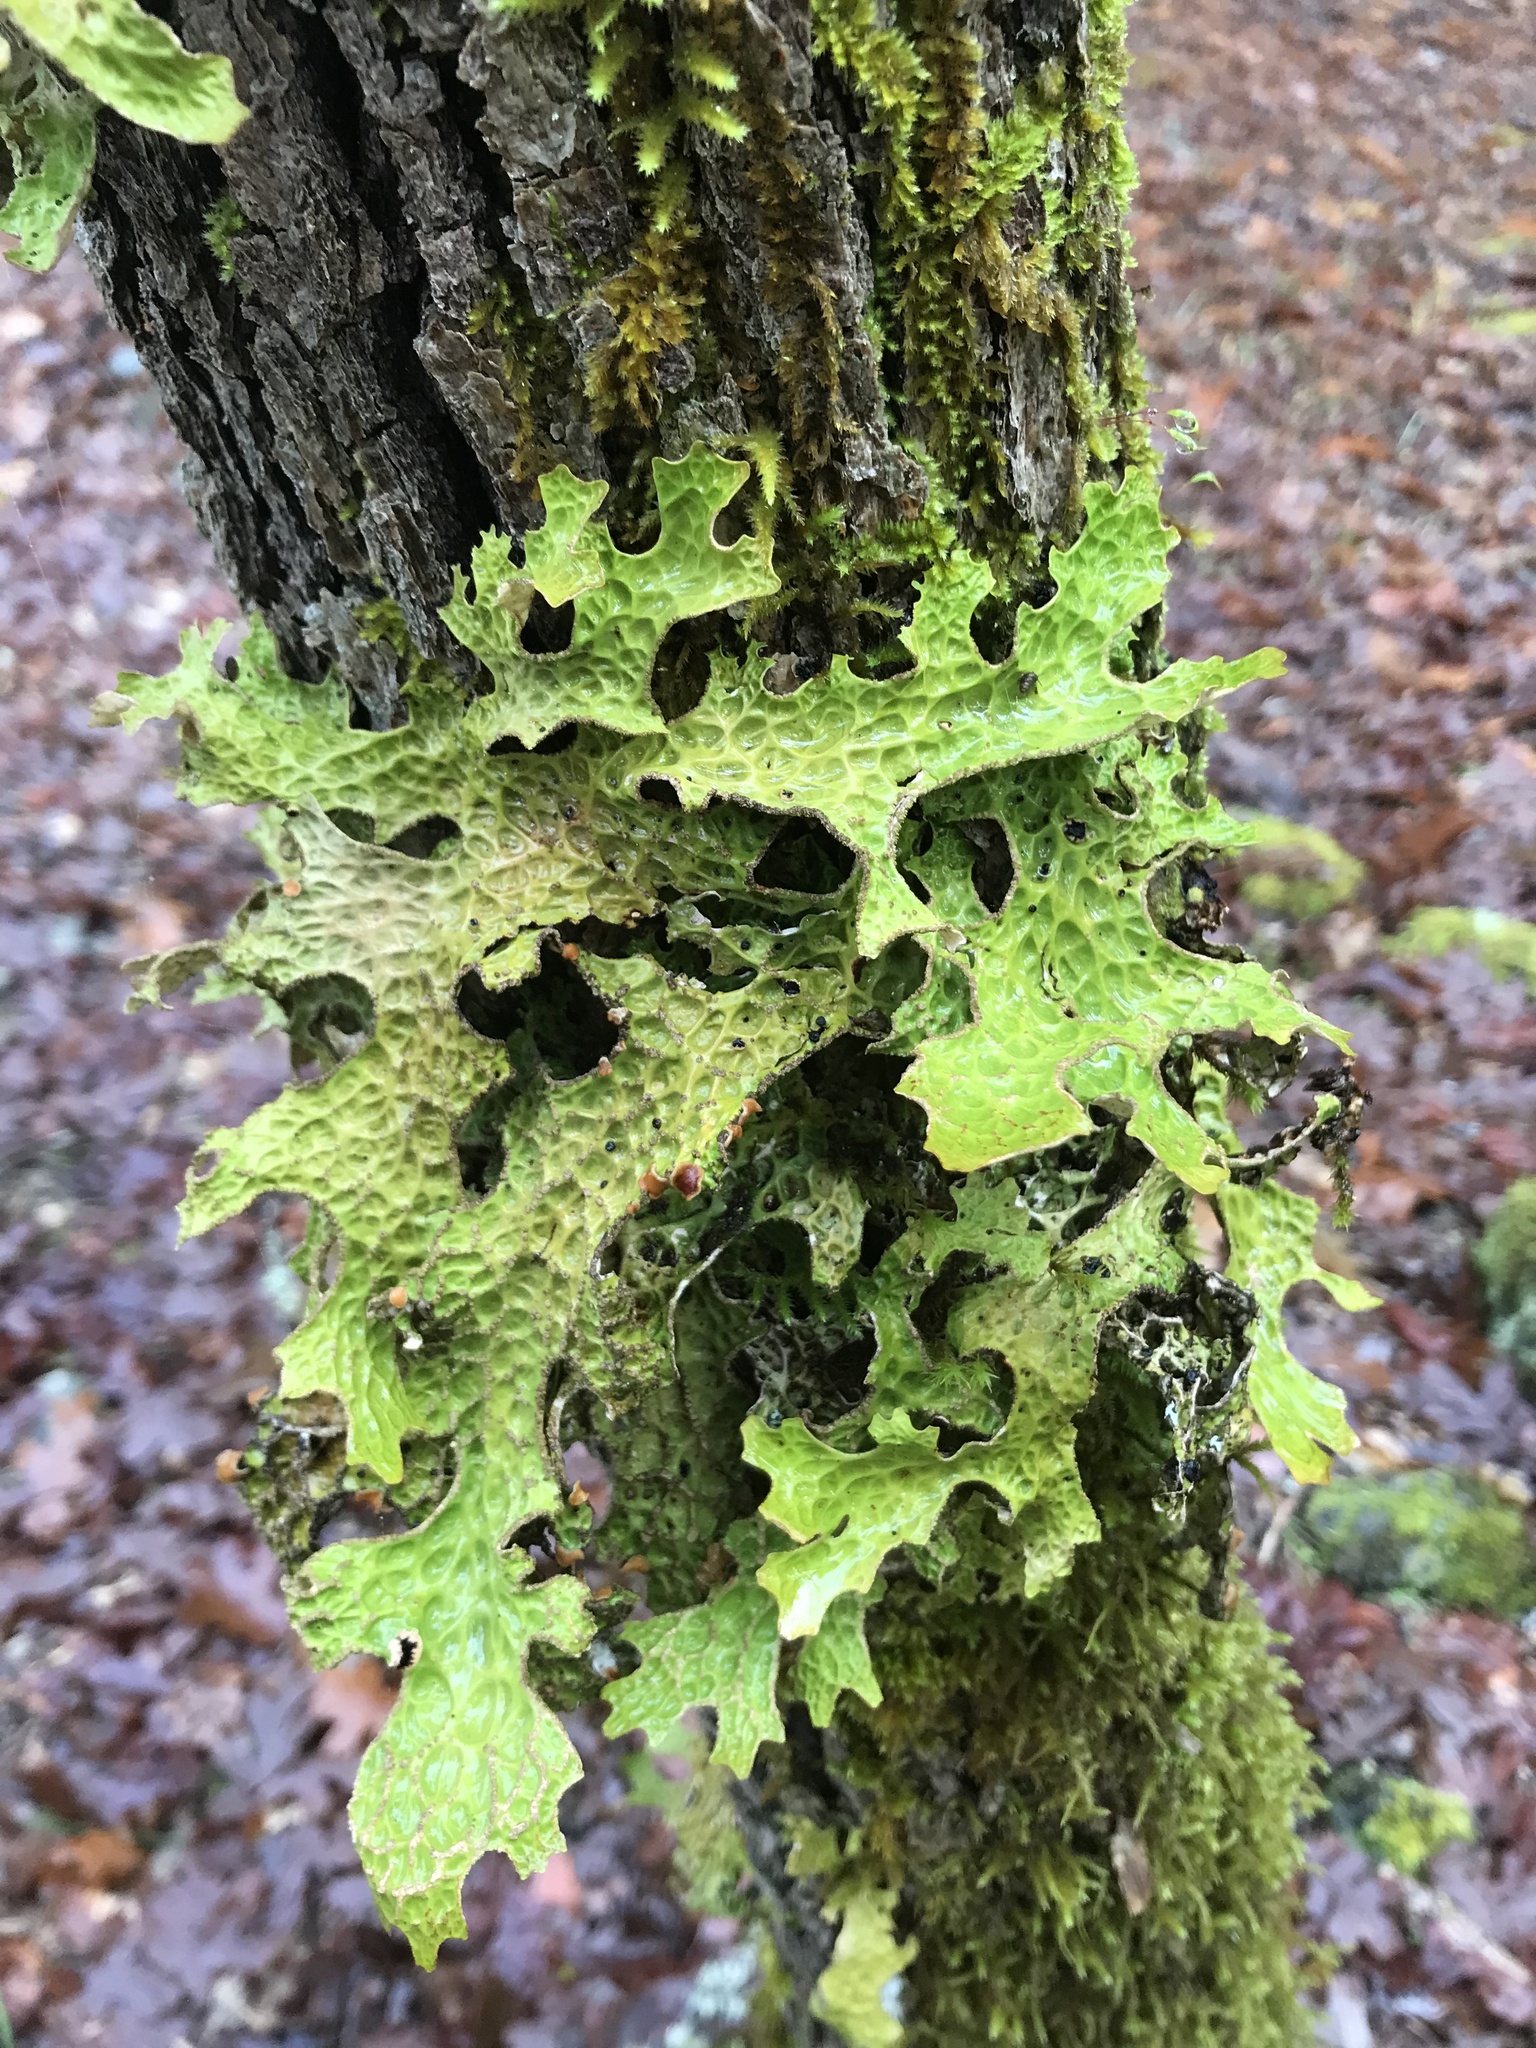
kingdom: Fungi
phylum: Ascomycota
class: Lecanoromycetes
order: Peltigerales
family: Lobariaceae
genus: Lobaria
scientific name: Lobaria pulmonaria
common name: Lungwort
